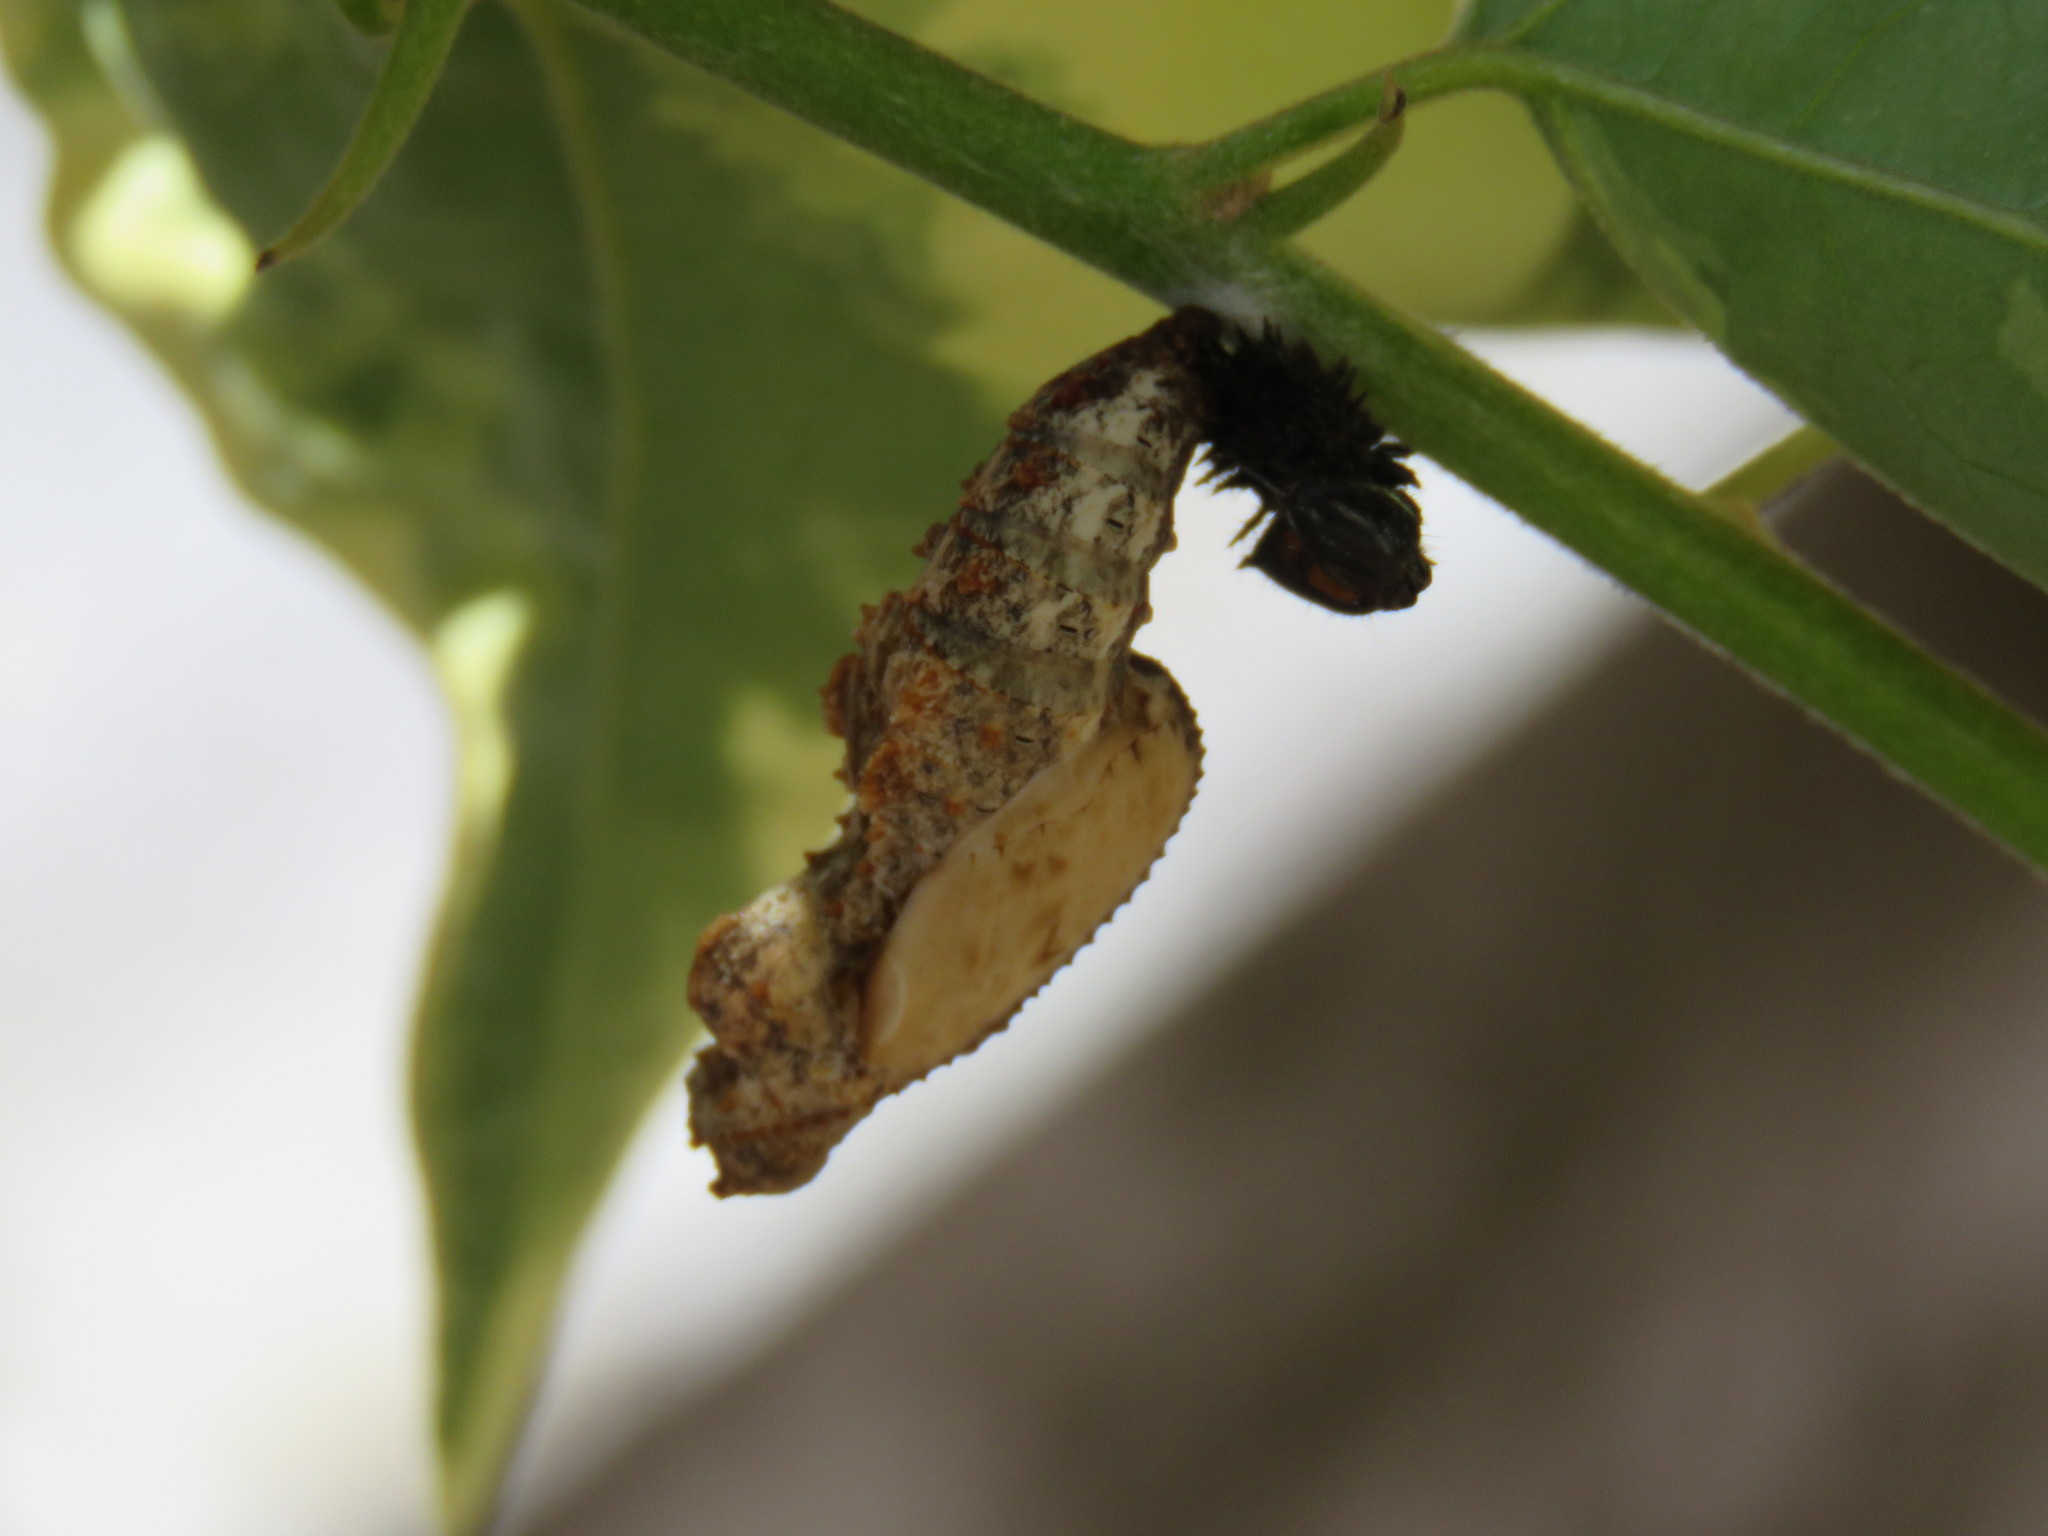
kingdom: Animalia
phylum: Arthropoda
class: Insecta
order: Lepidoptera
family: Nymphalidae
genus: Dione
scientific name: Dione juno
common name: Juno silverspot
